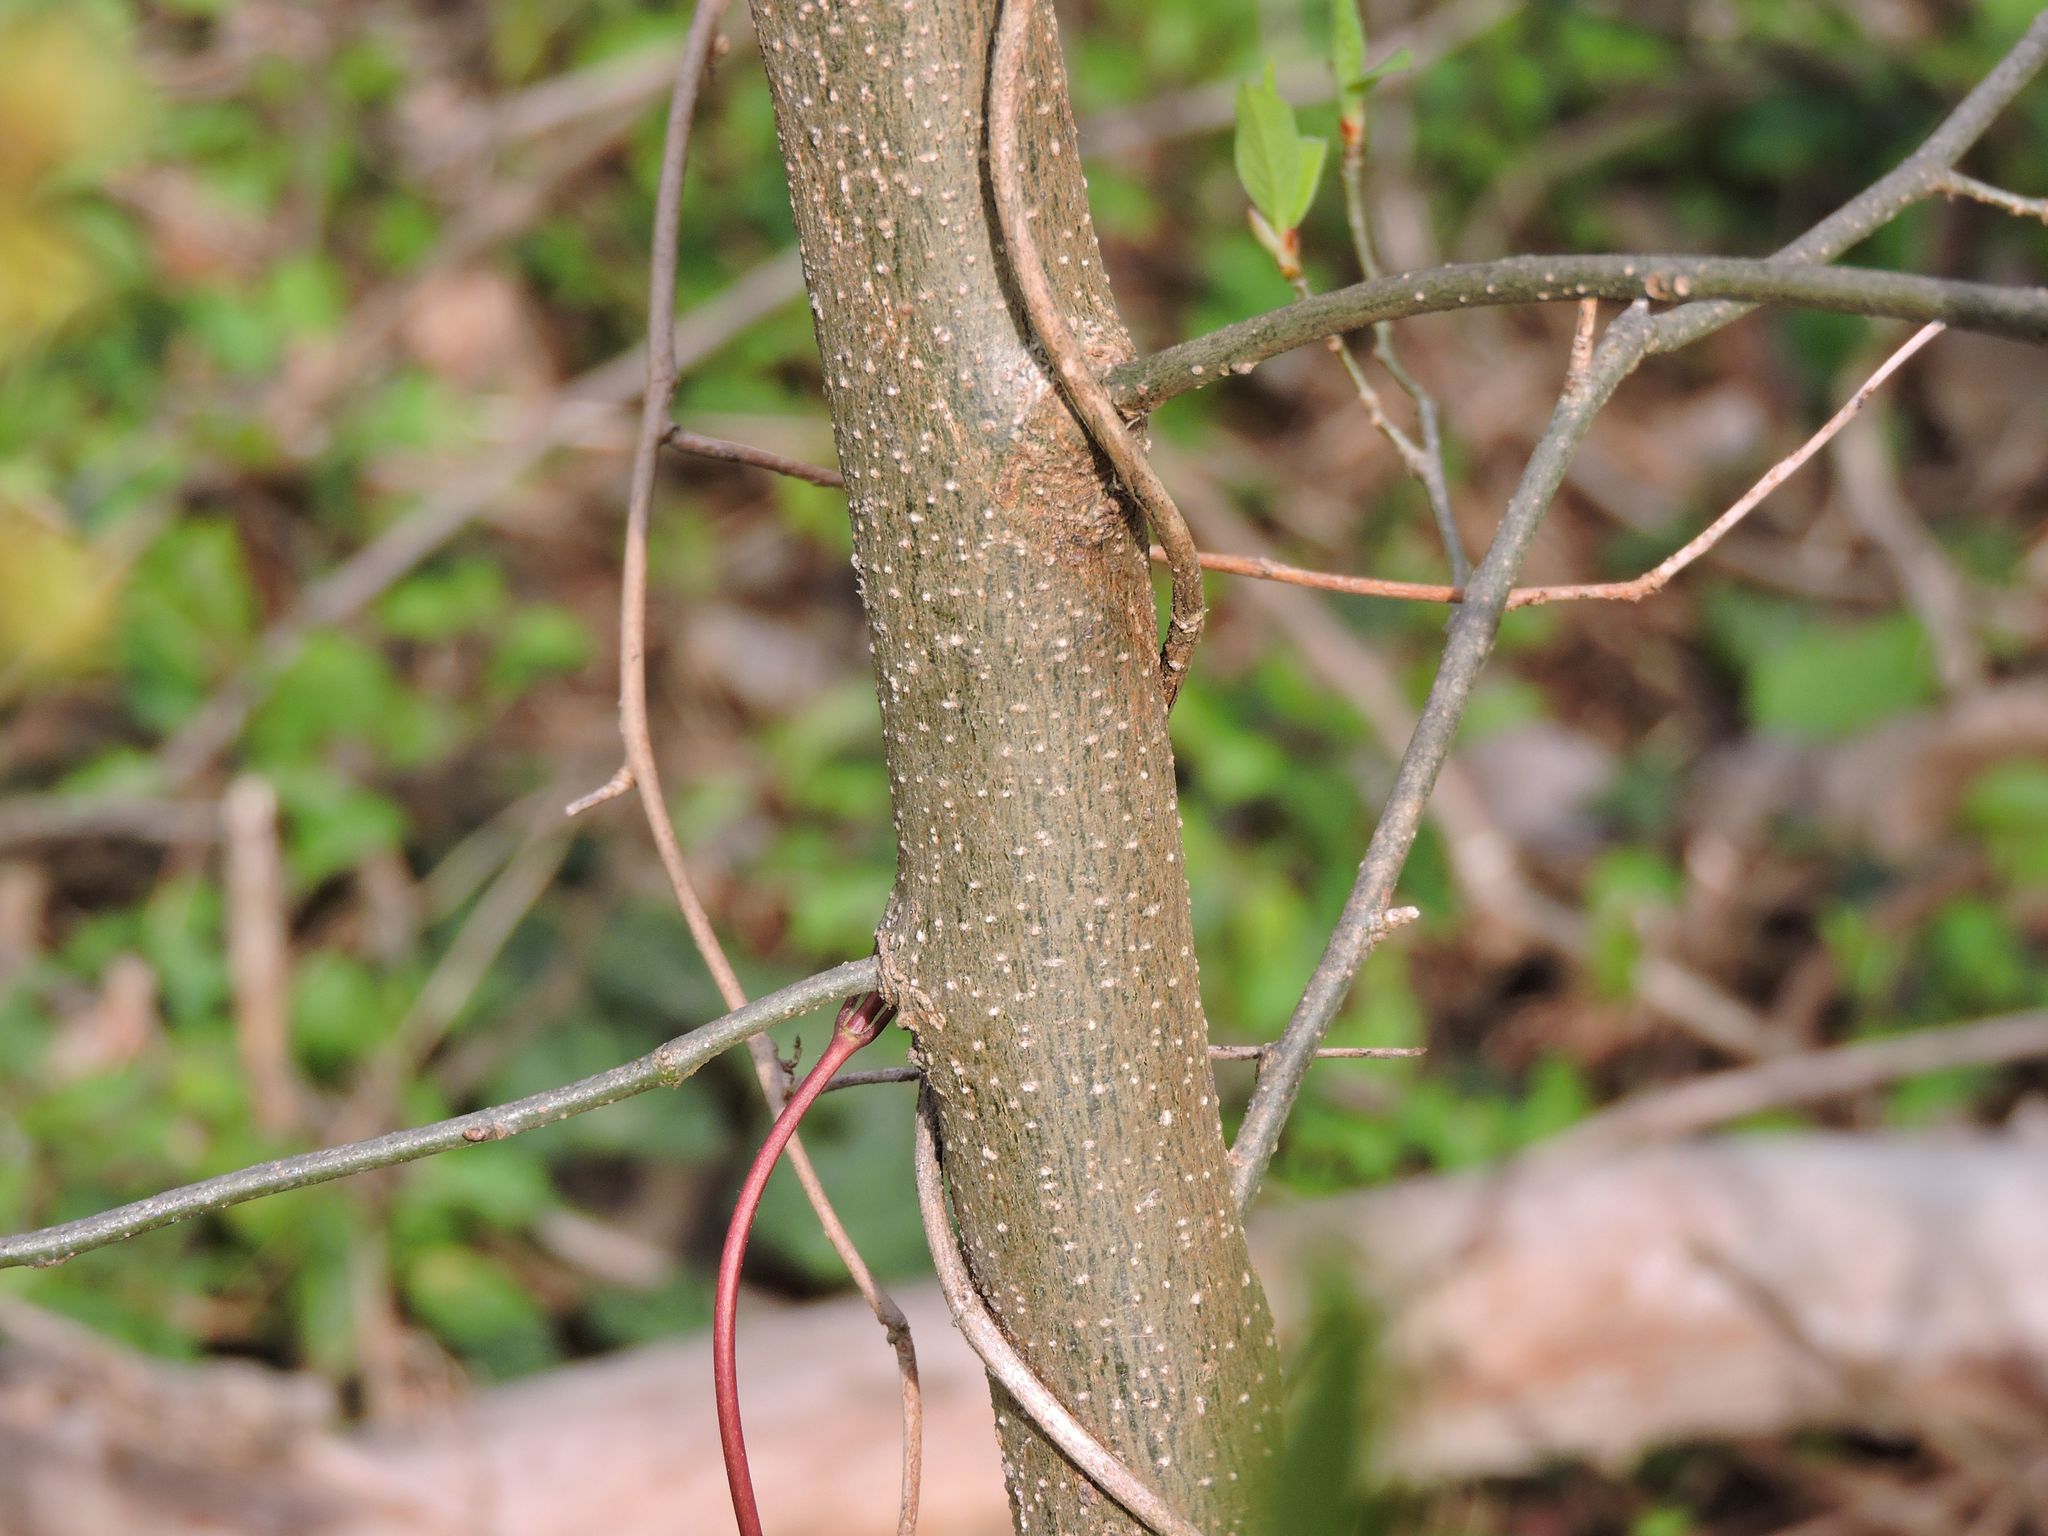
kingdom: Plantae
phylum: Tracheophyta
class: Magnoliopsida
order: Laurales
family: Lauraceae
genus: Lindera
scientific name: Lindera benzoin
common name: Spicebush
